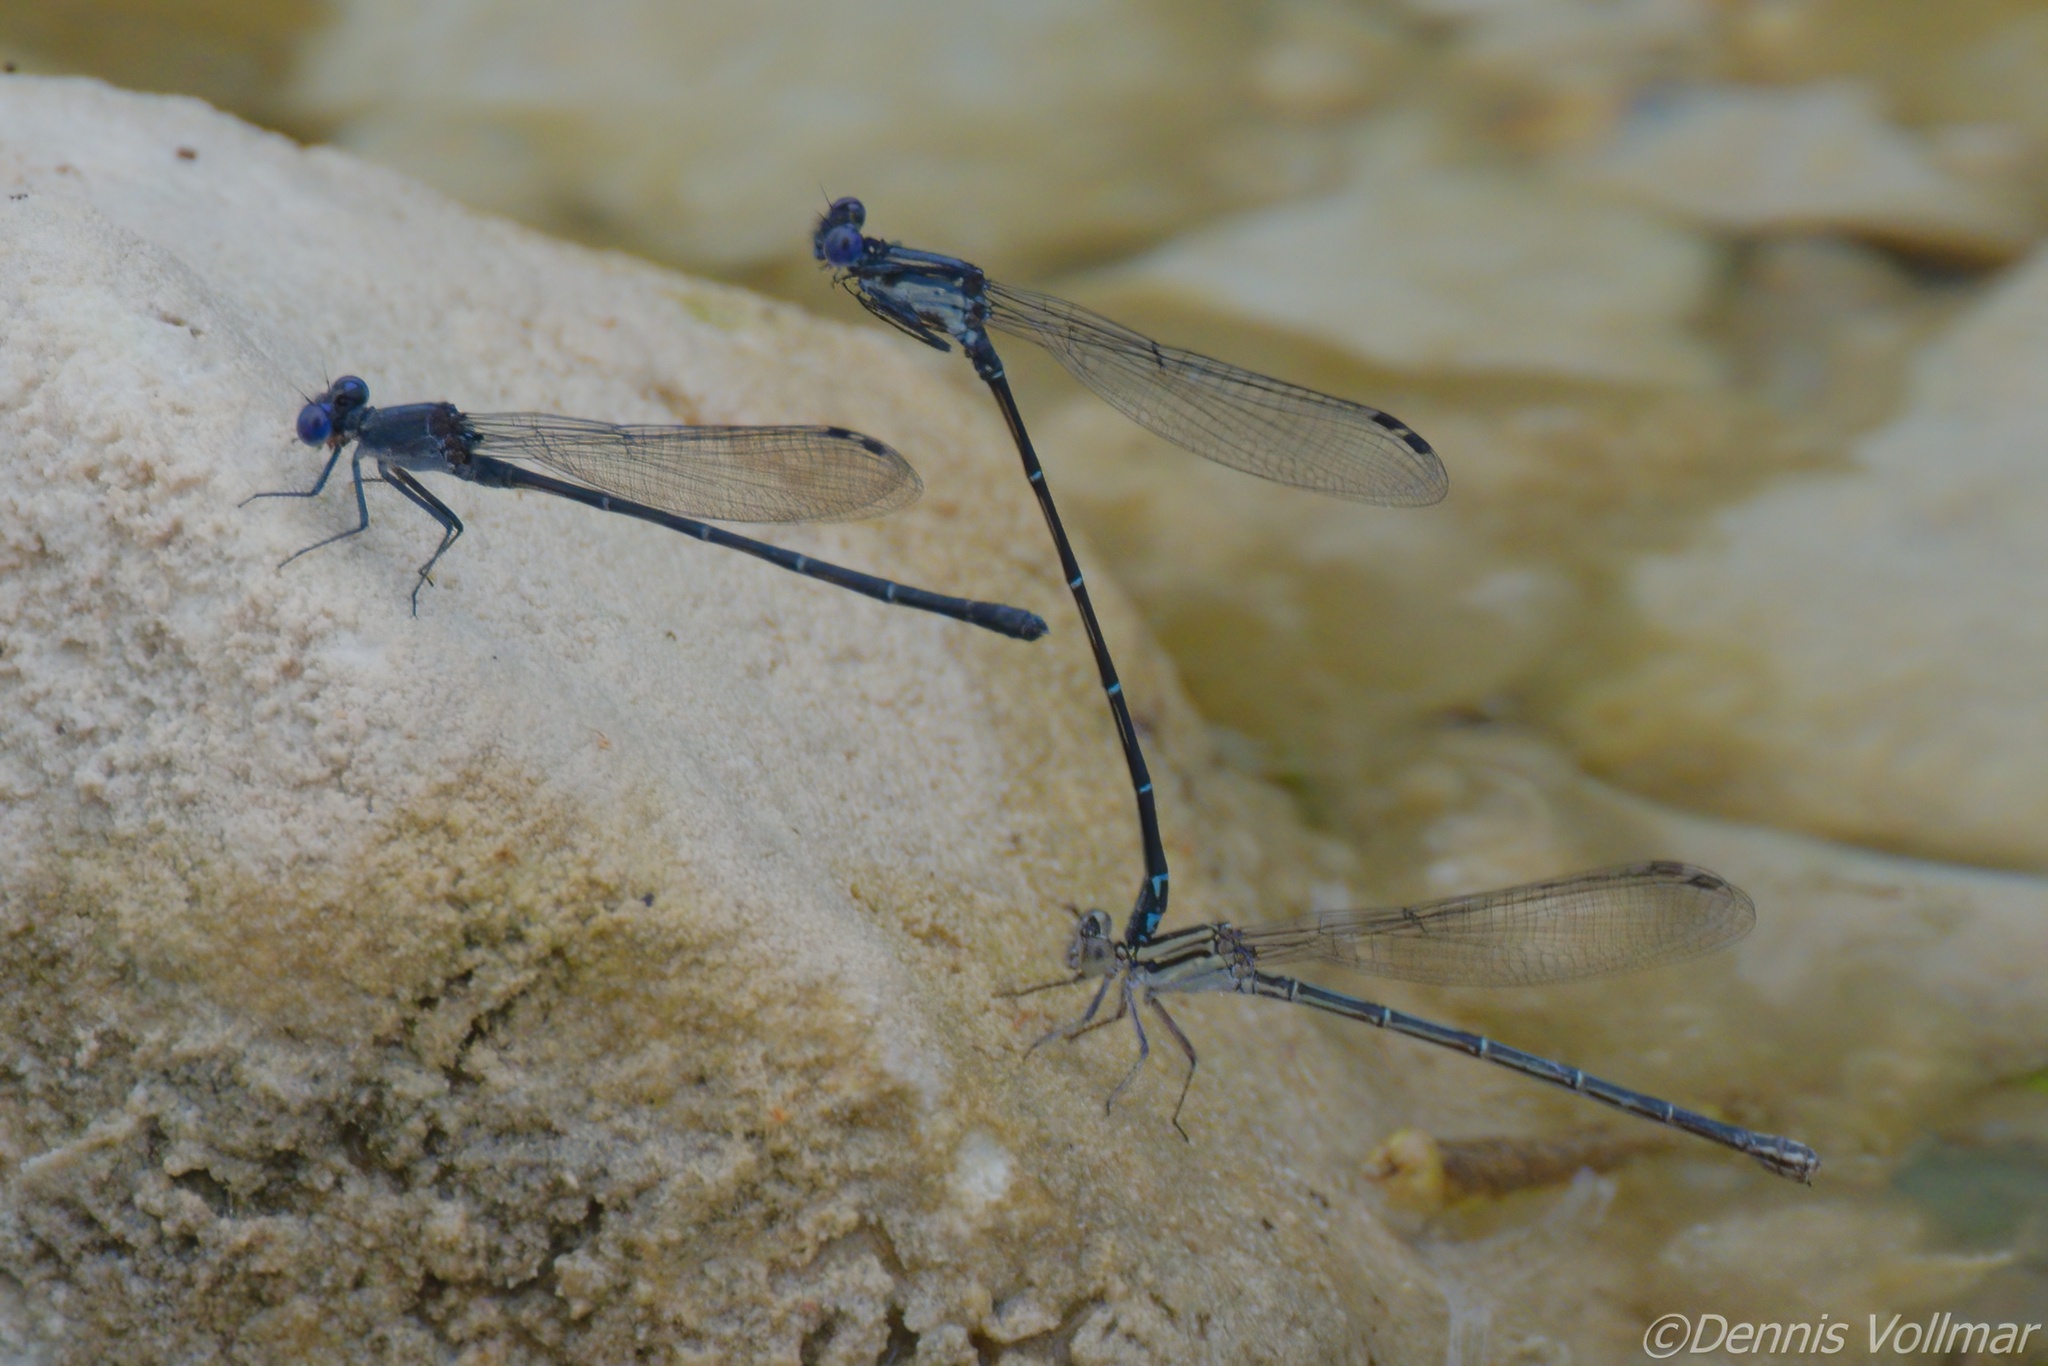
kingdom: Animalia
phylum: Arthropoda
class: Insecta
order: Odonata
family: Coenagrionidae
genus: Argia
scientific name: Argia translata
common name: Dusky dancer
